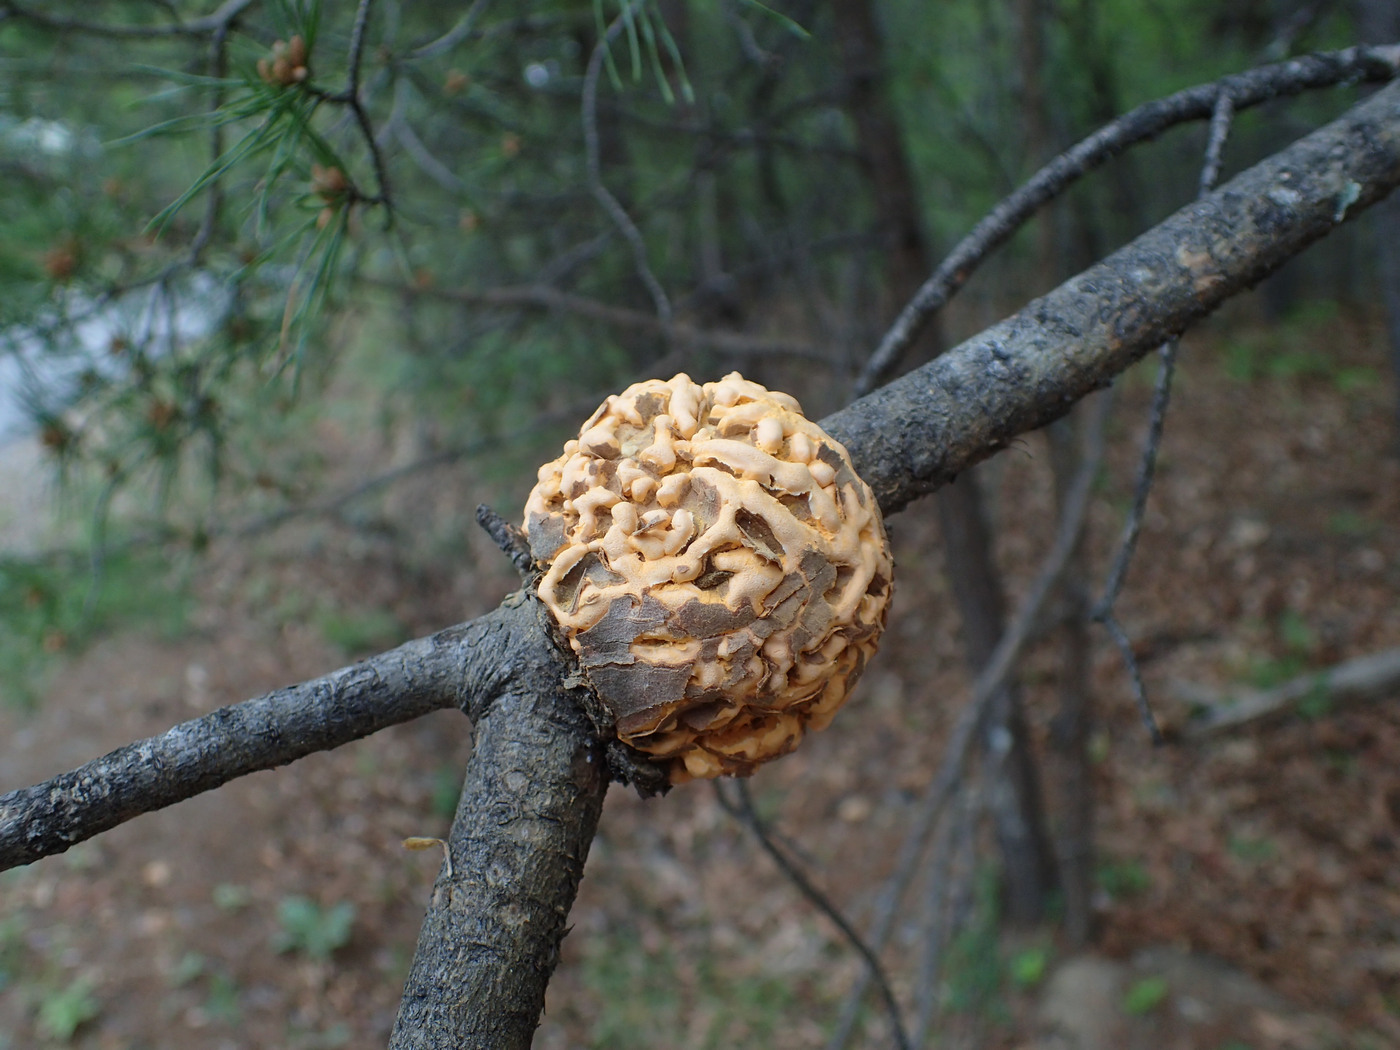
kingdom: Fungi
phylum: Basidiomycota
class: Pucciniomycetes
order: Pucciniales
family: Cronartiaceae
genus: Cronartium
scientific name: Cronartium quercuum
